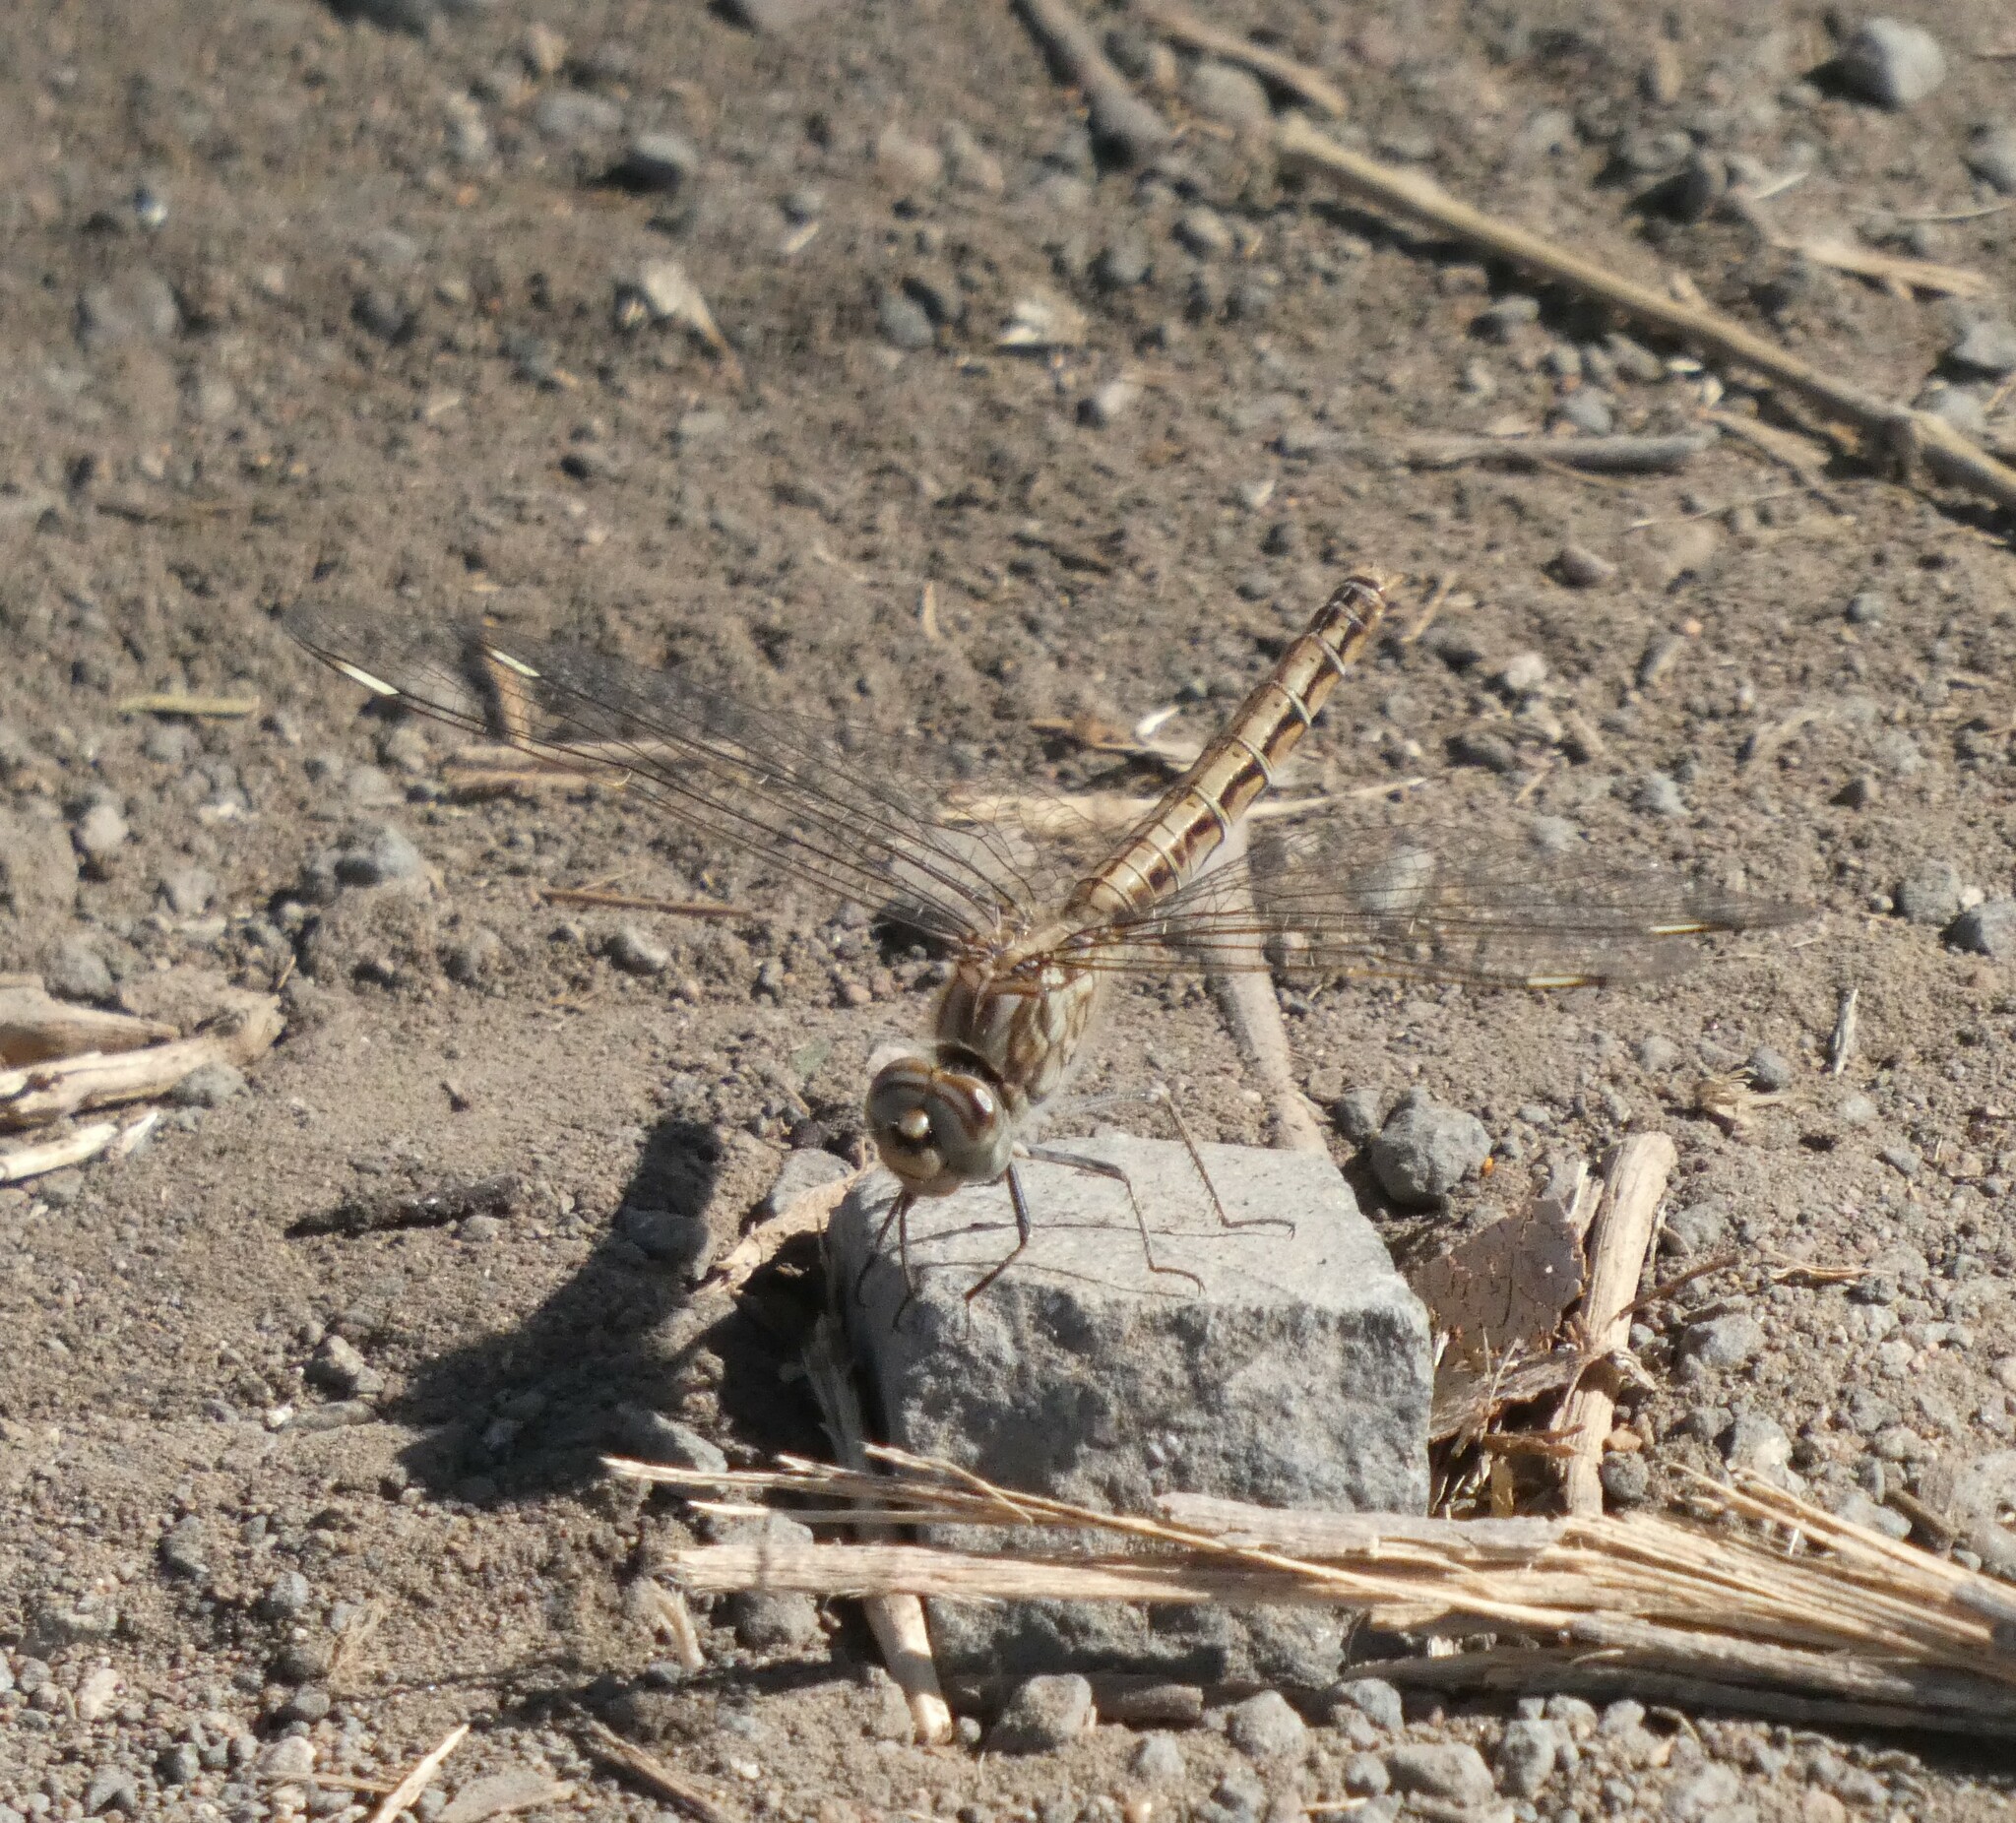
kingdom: Animalia
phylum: Arthropoda
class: Insecta
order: Odonata
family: Libellulidae
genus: Brachythemis
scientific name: Brachythemis leucosticta
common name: Banded groundling
